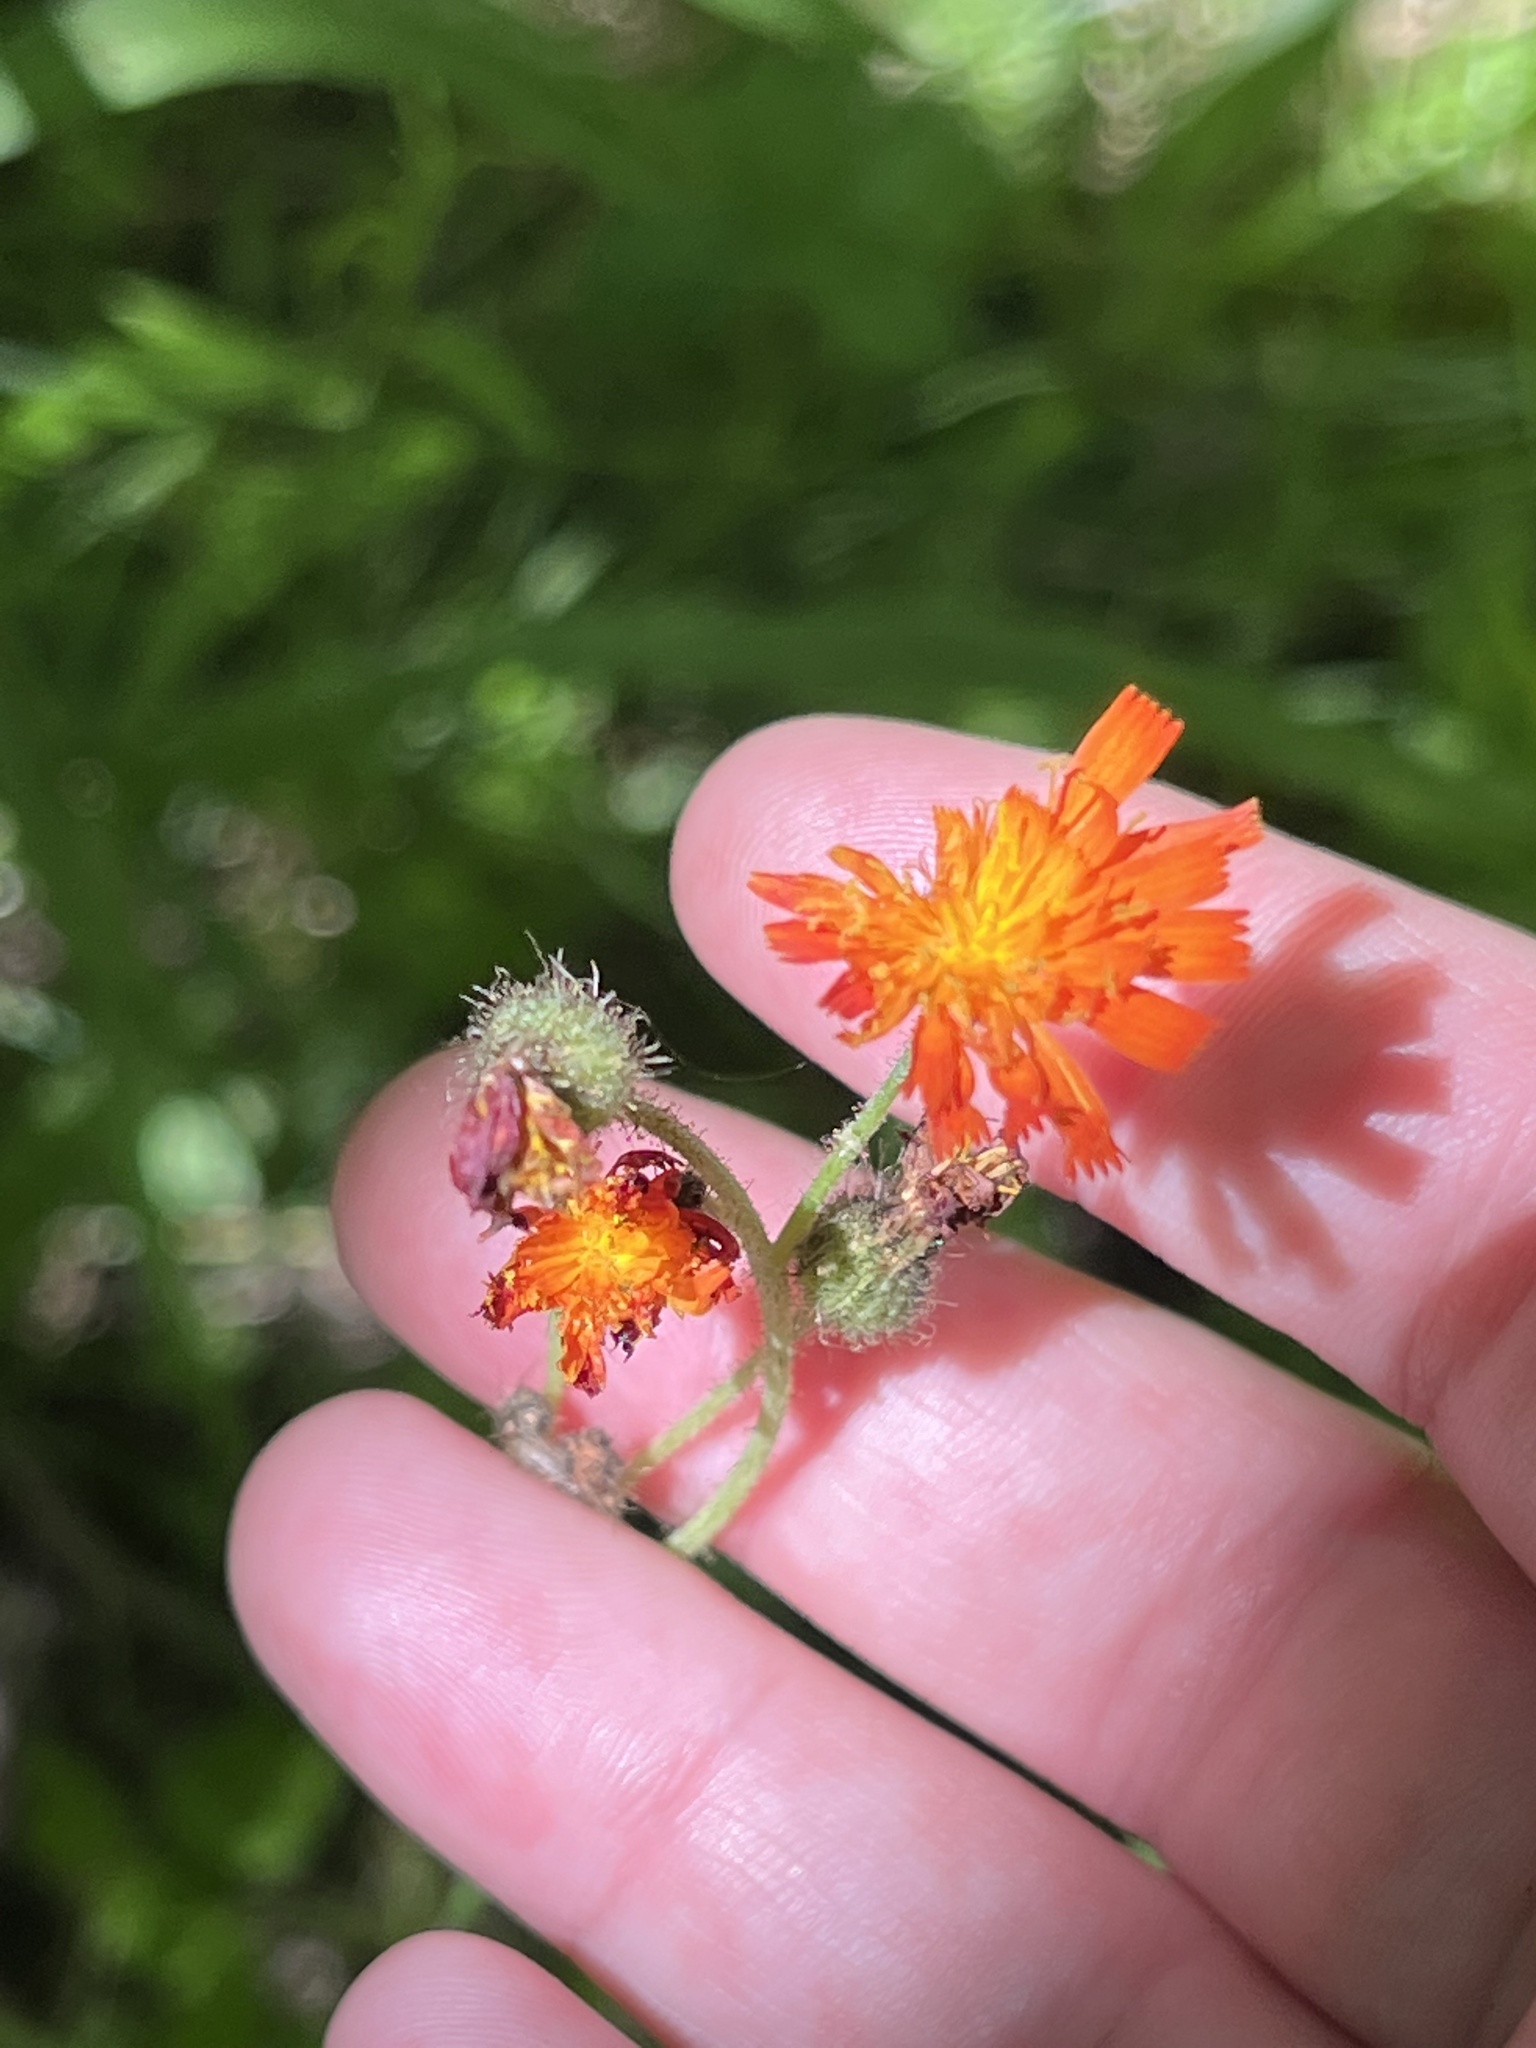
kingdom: Plantae
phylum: Tracheophyta
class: Magnoliopsida
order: Asterales
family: Asteraceae
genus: Pilosella
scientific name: Pilosella aurantiaca
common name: Fox-and-cubs
